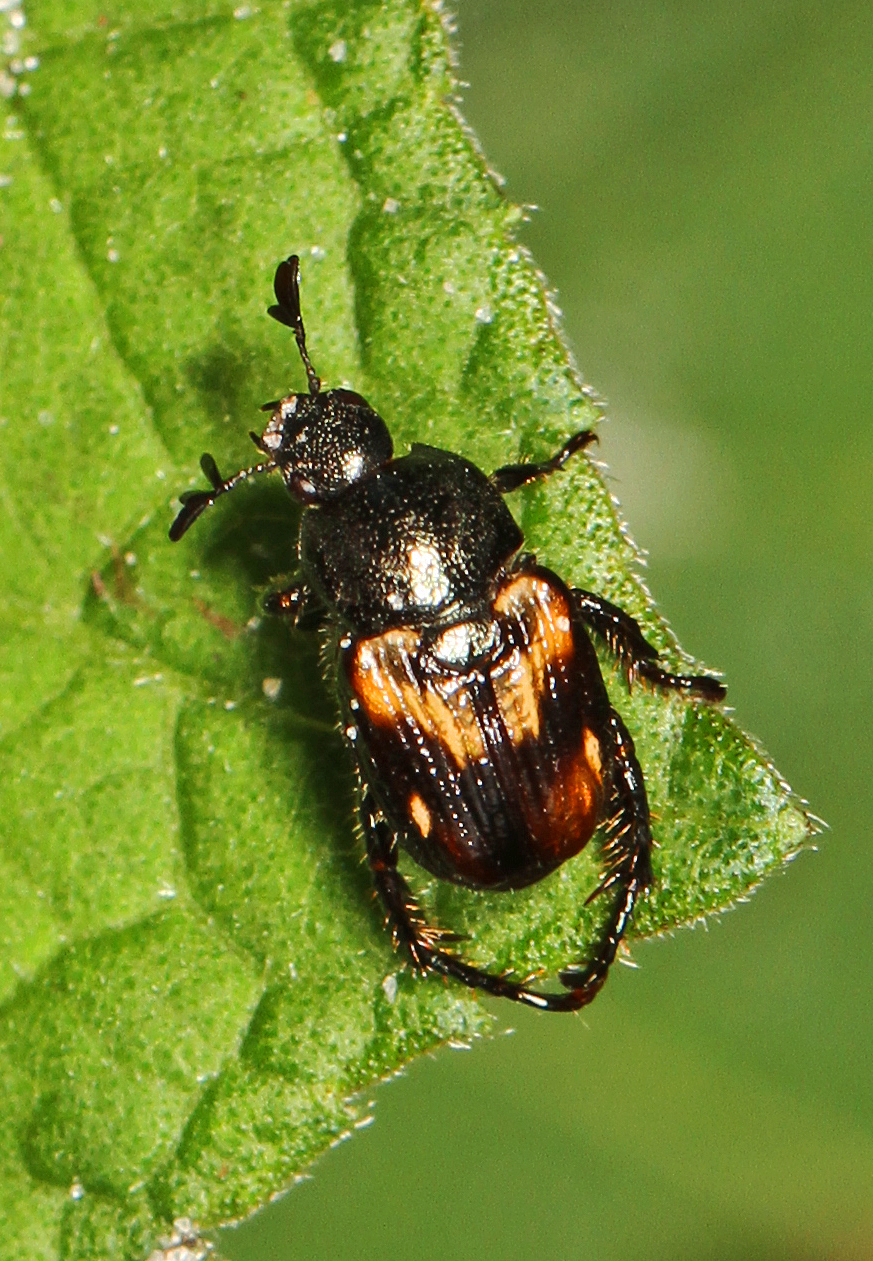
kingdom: Animalia
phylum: Arthropoda
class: Insecta
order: Coleoptera
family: Scarabaeidae
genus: Strigoderma
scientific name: Strigoderma pygmaea
